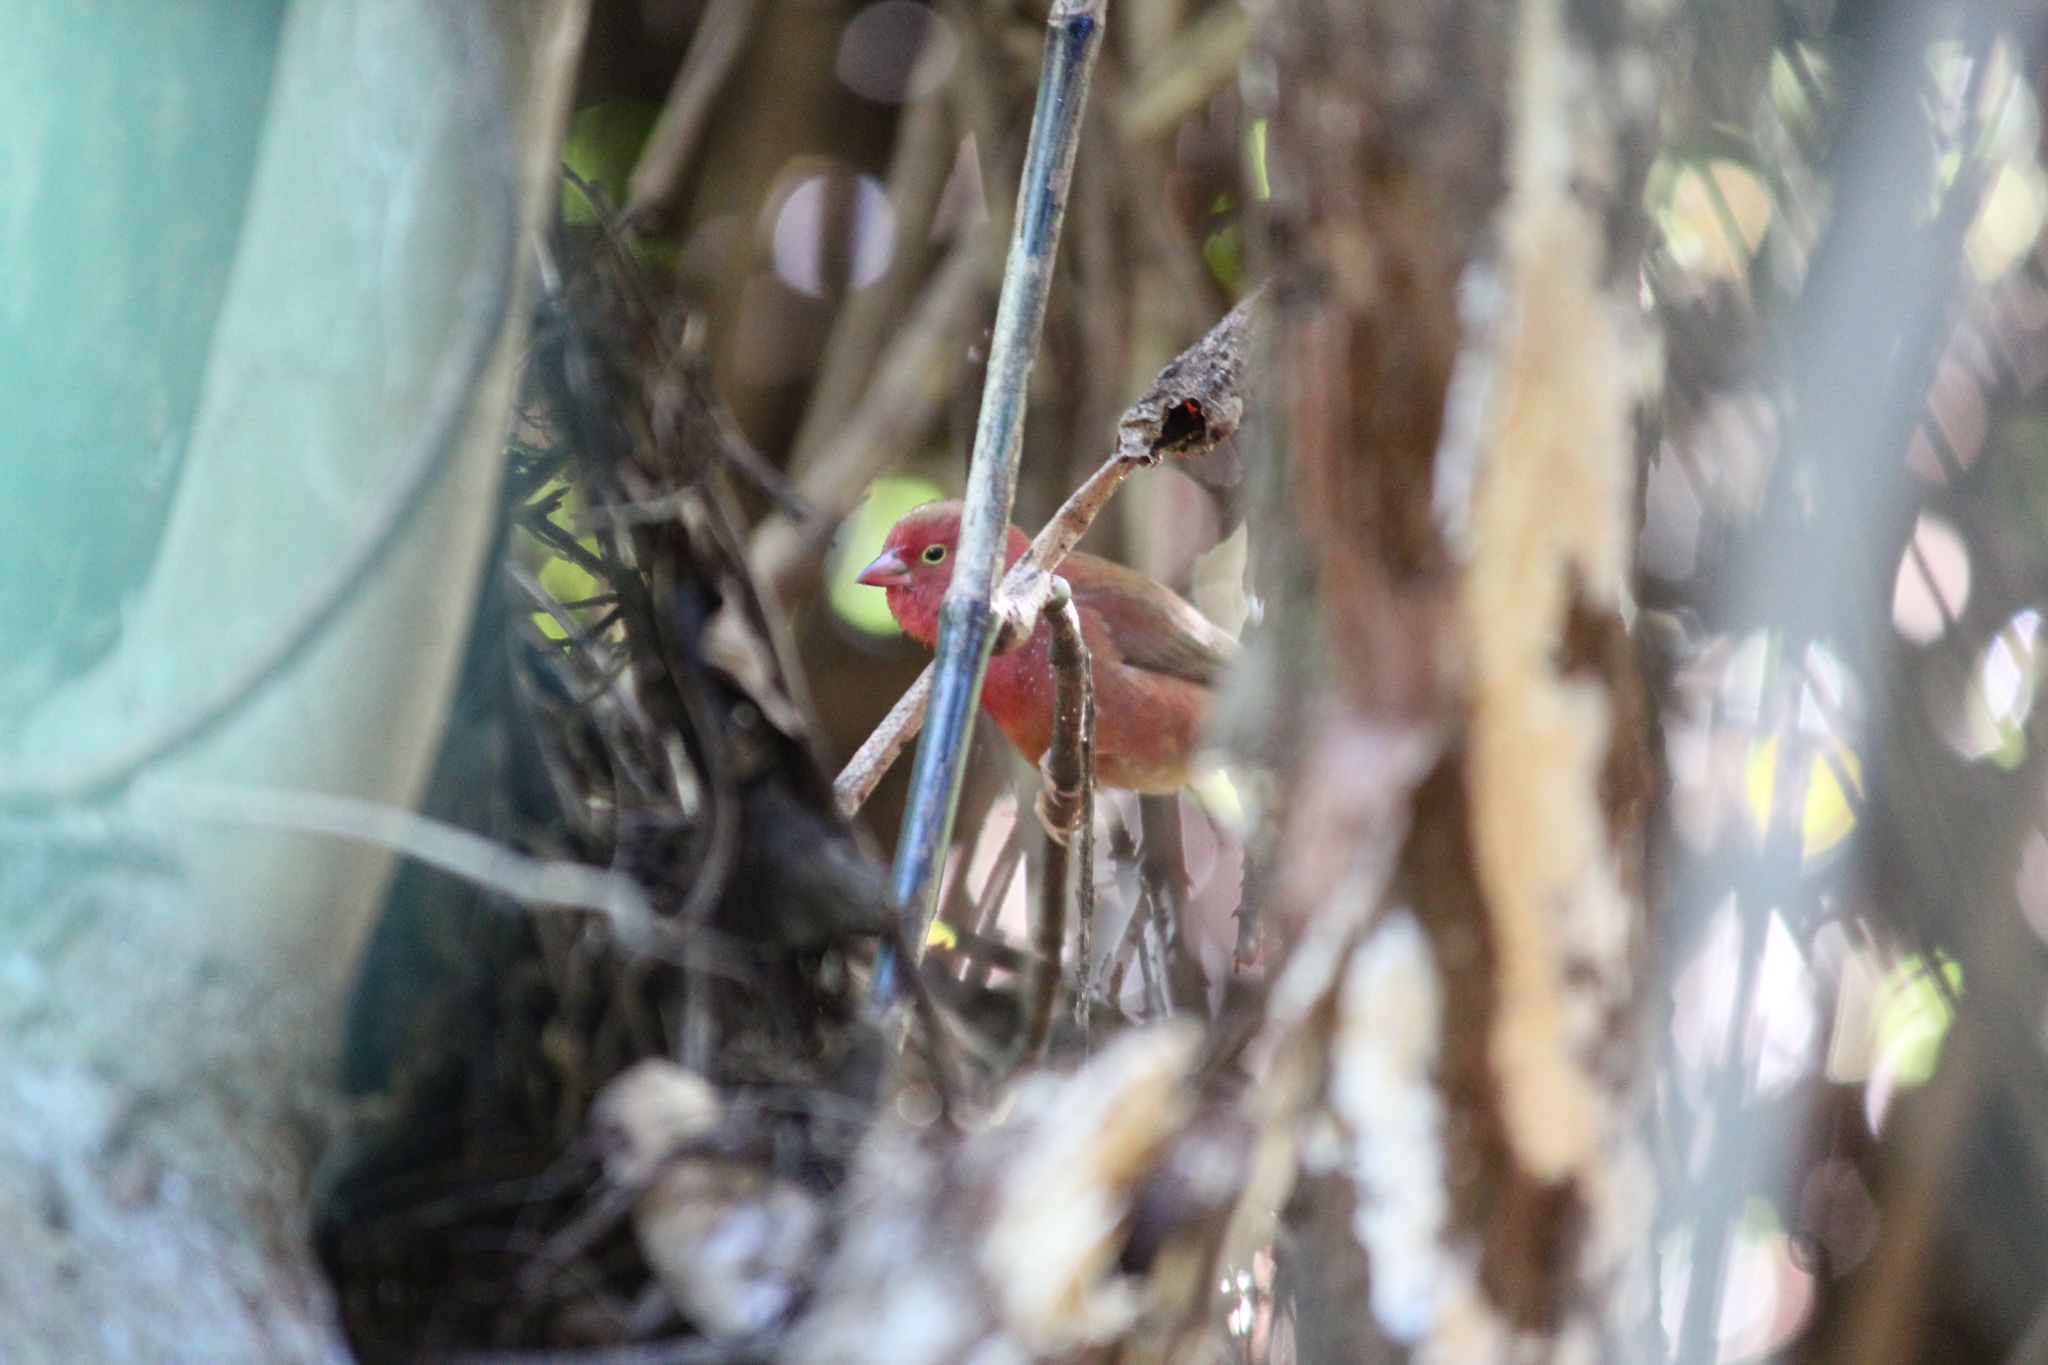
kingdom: Animalia
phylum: Chordata
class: Aves
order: Passeriformes
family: Estrildidae
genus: Lagonosticta
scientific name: Lagonosticta senegala
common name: Red-billed firefinch
